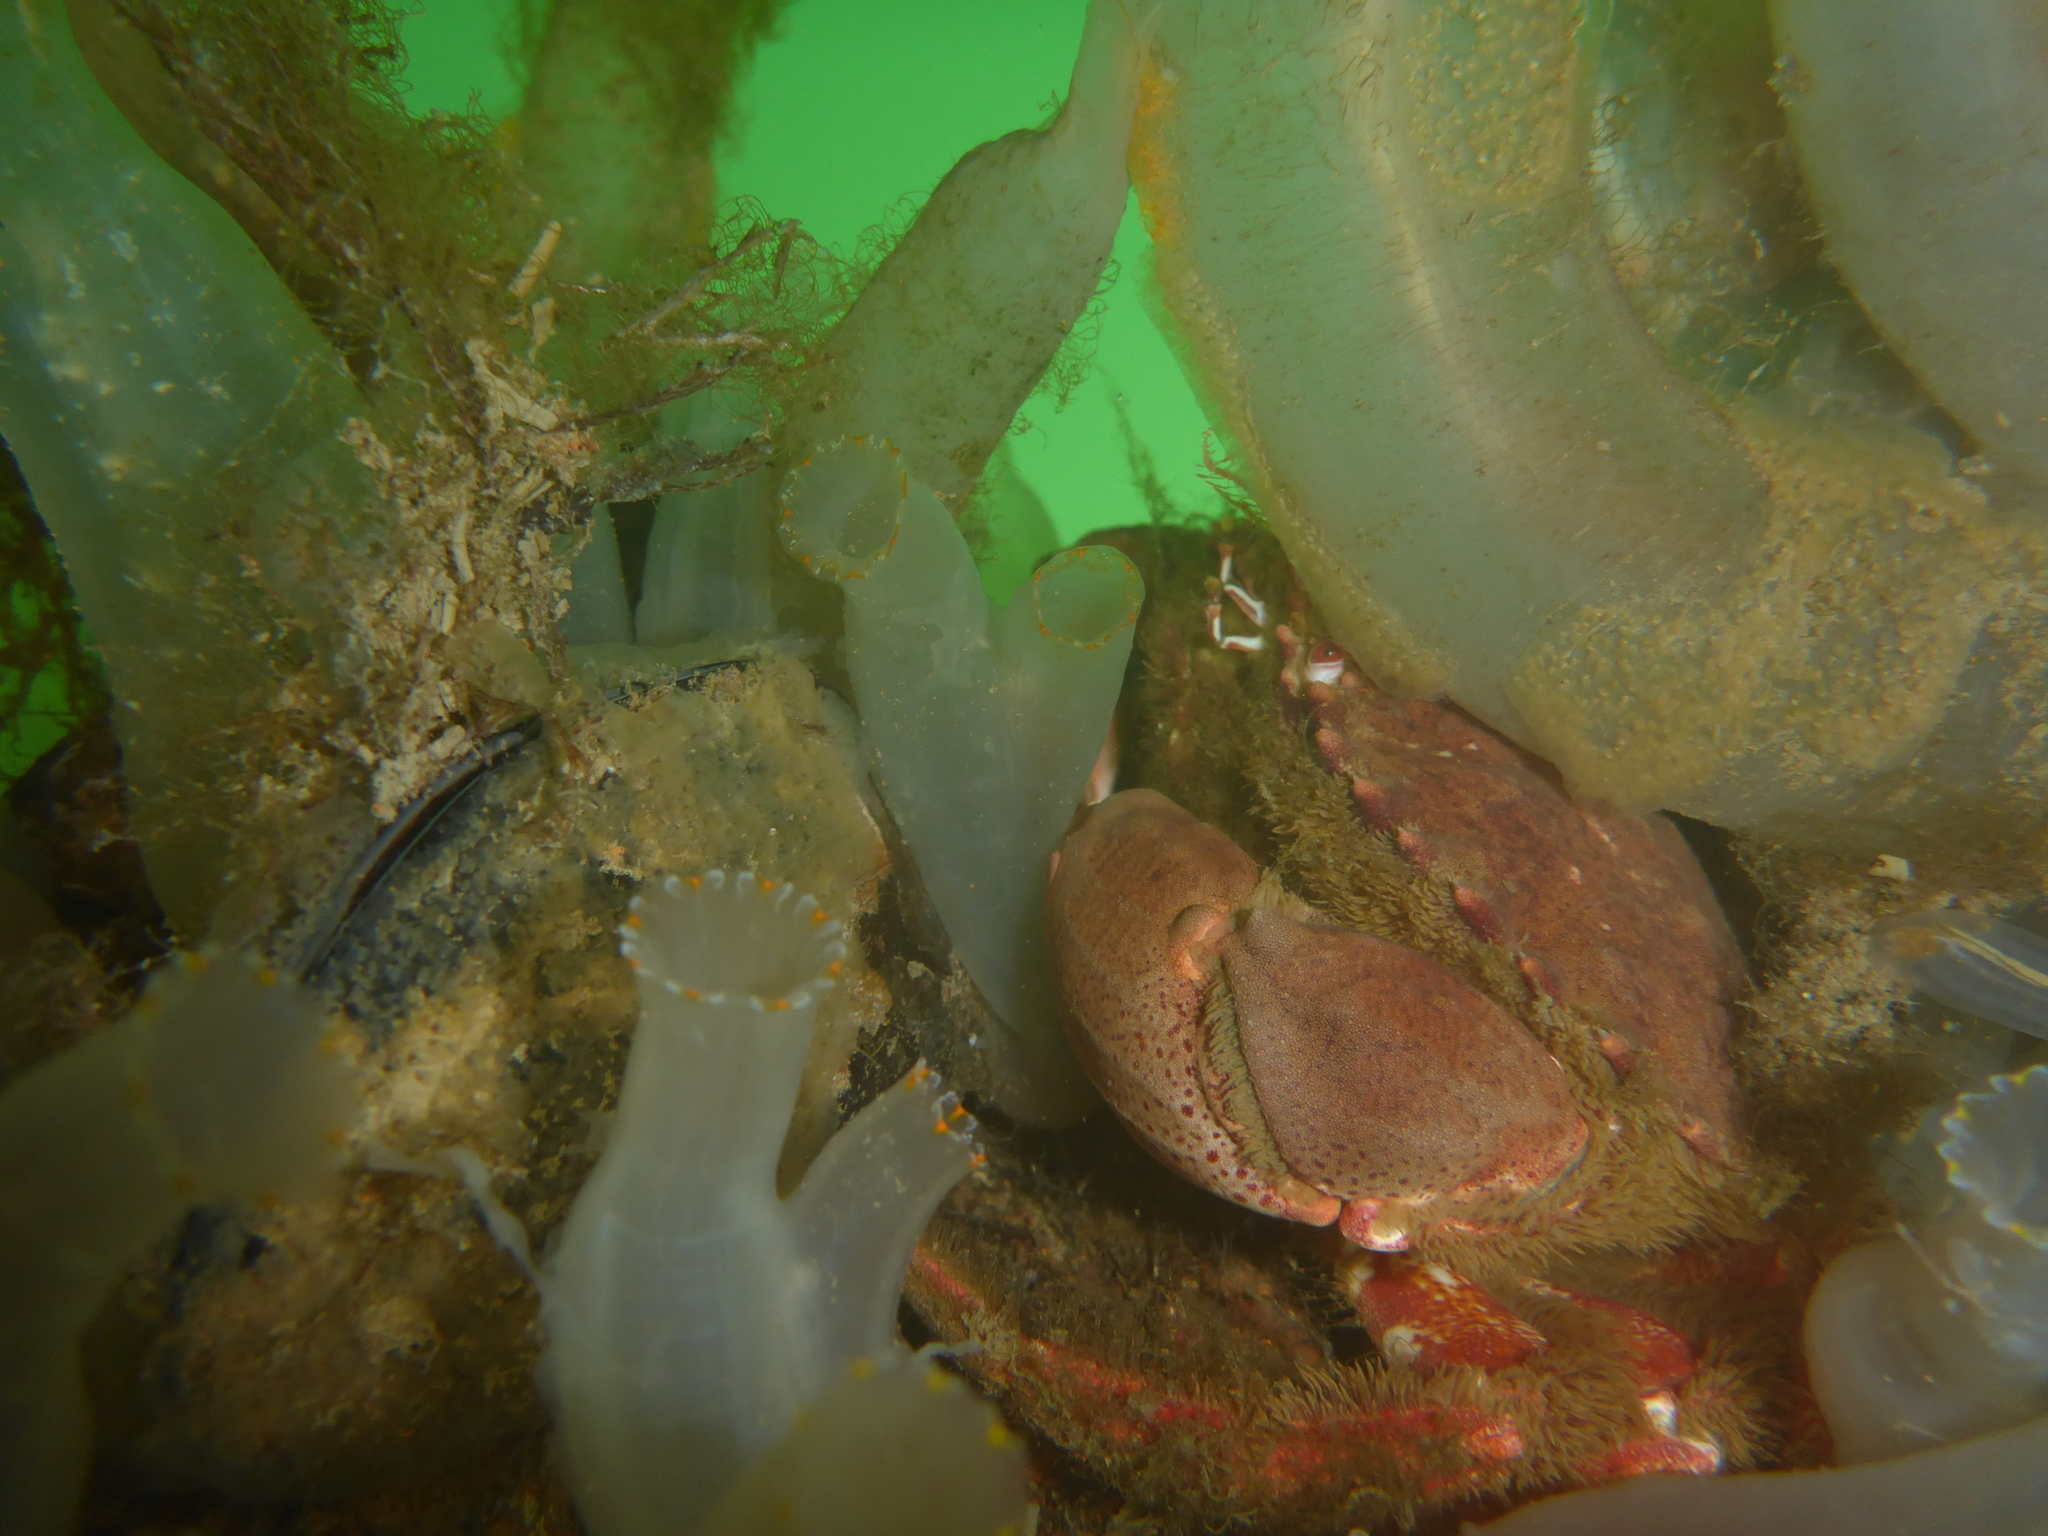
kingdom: Animalia
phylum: Arthropoda
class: Malacostraca
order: Decapoda
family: Cancridae
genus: Romaleon
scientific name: Romaleon antennarium
